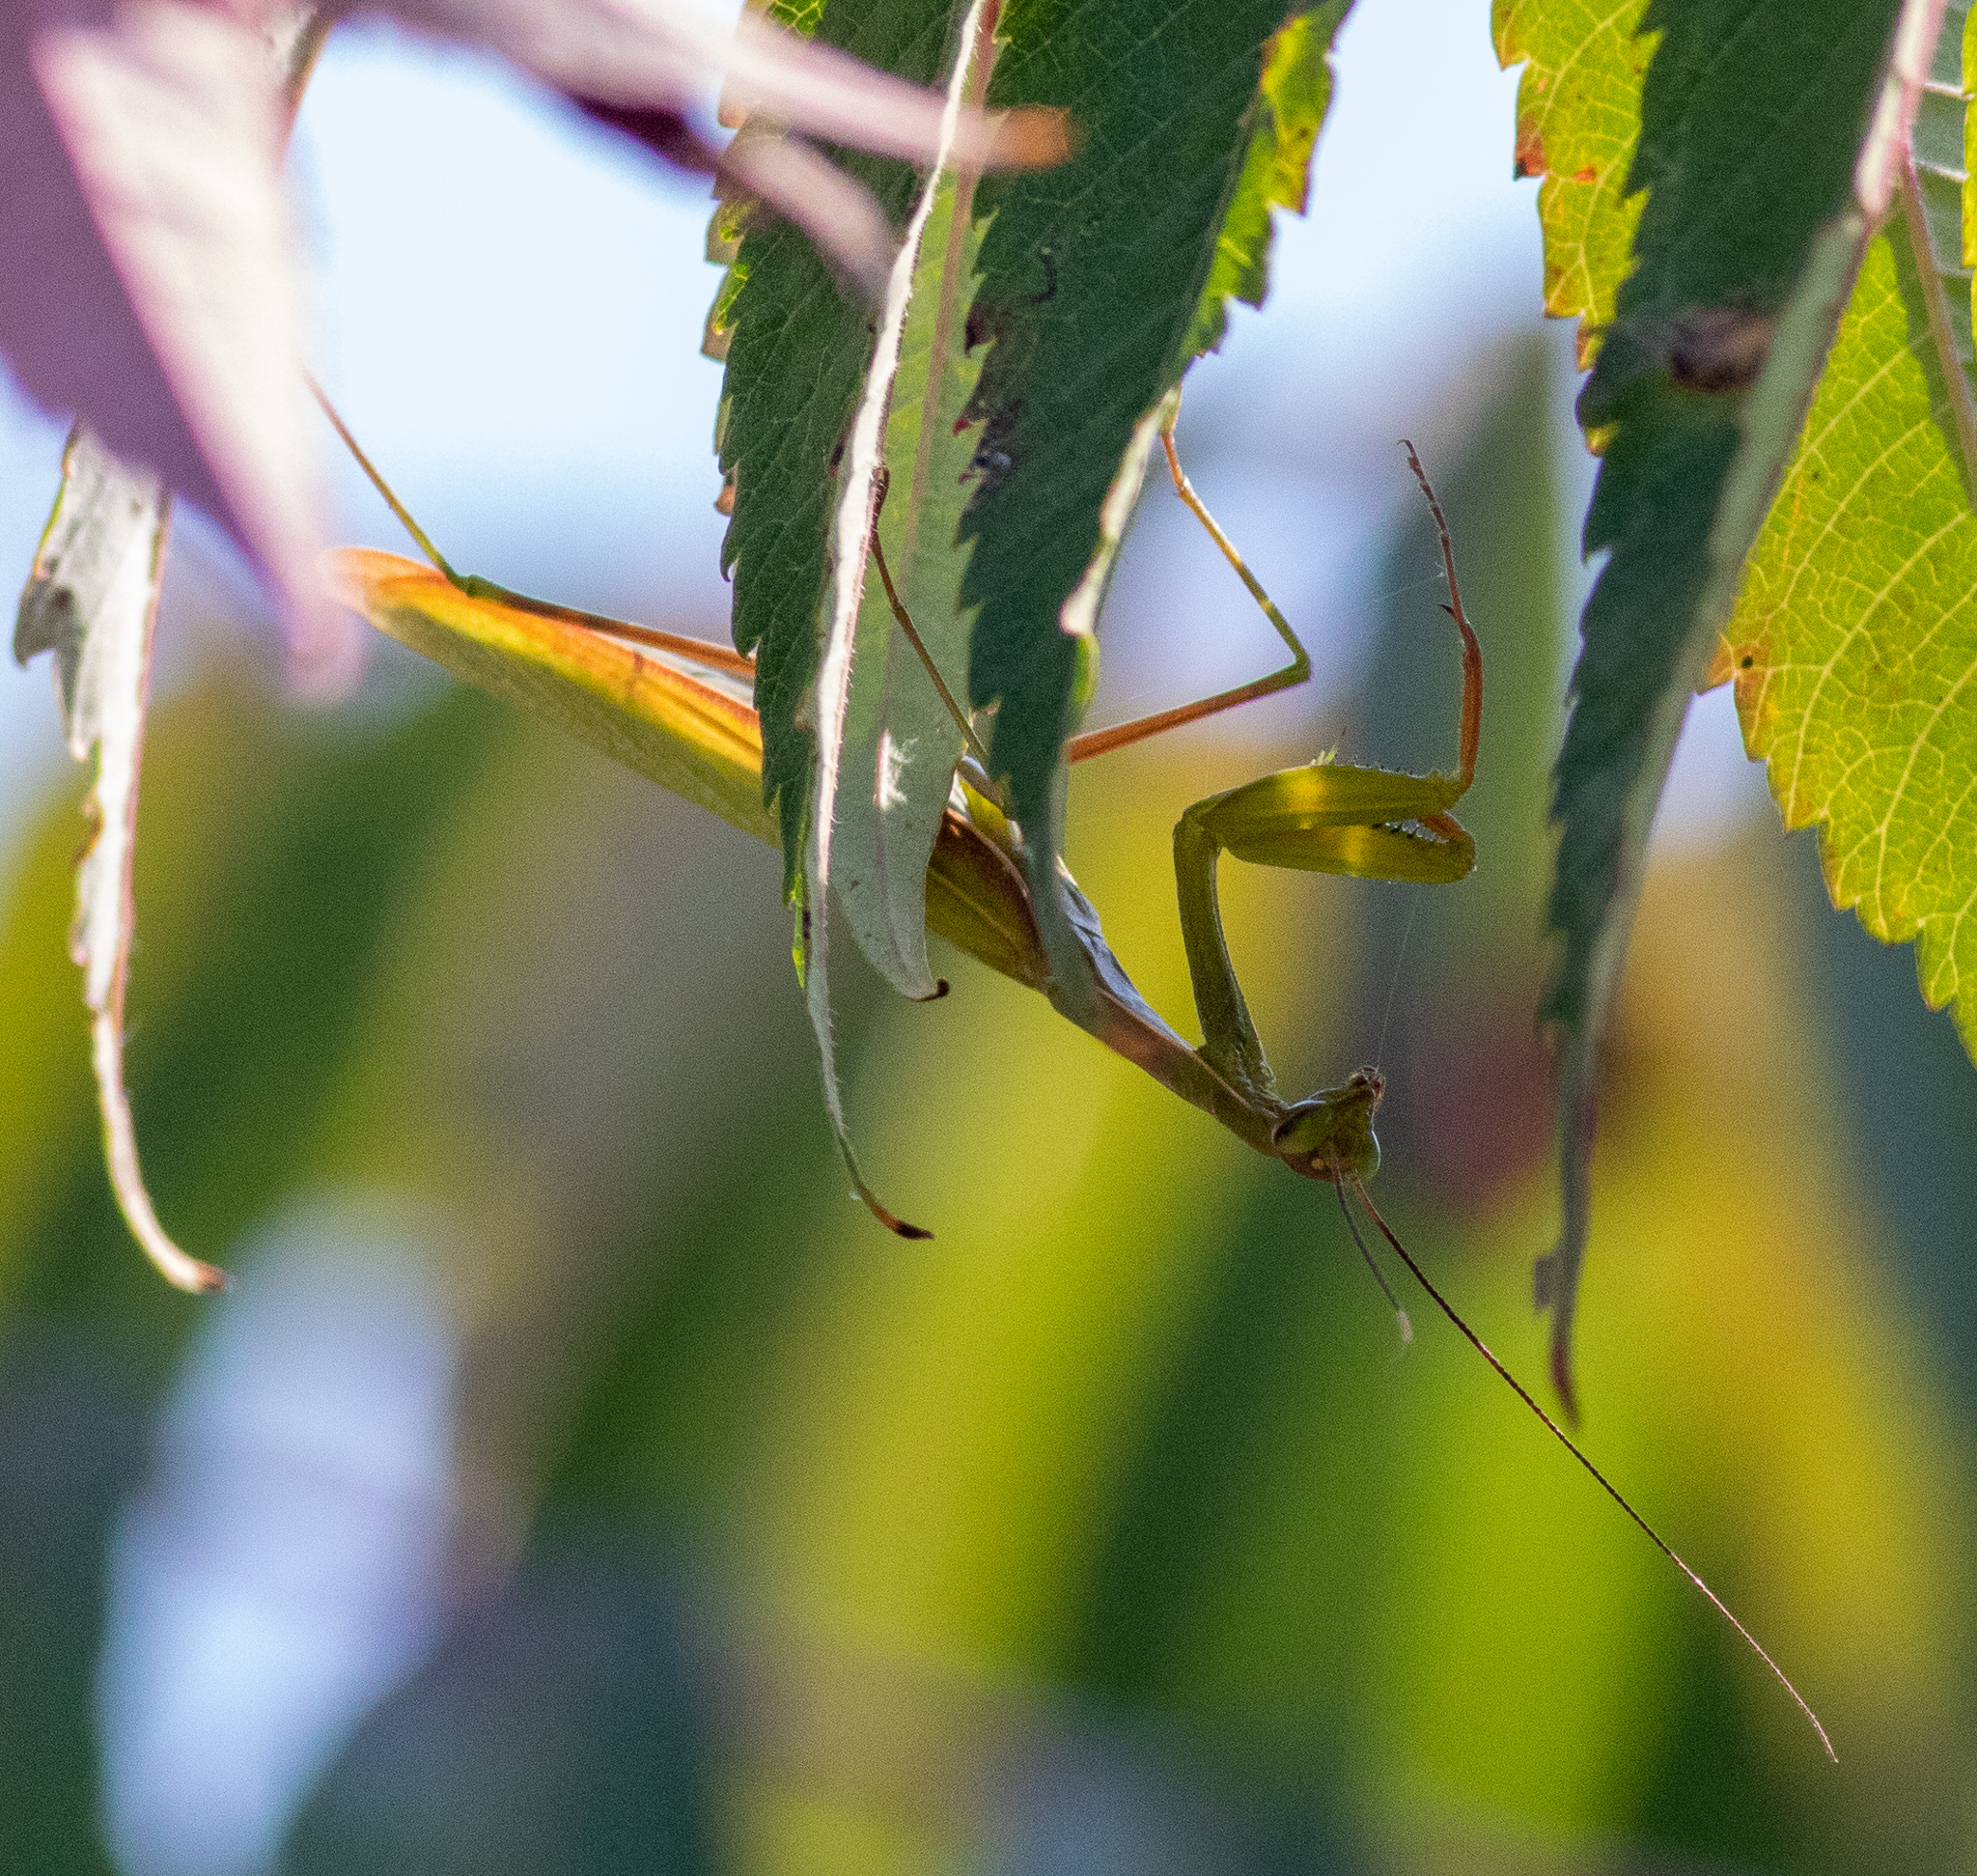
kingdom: Animalia
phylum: Arthropoda
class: Insecta
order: Mantodea
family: Mantidae
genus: Mantis
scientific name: Mantis religiosa
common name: Praying mantis
